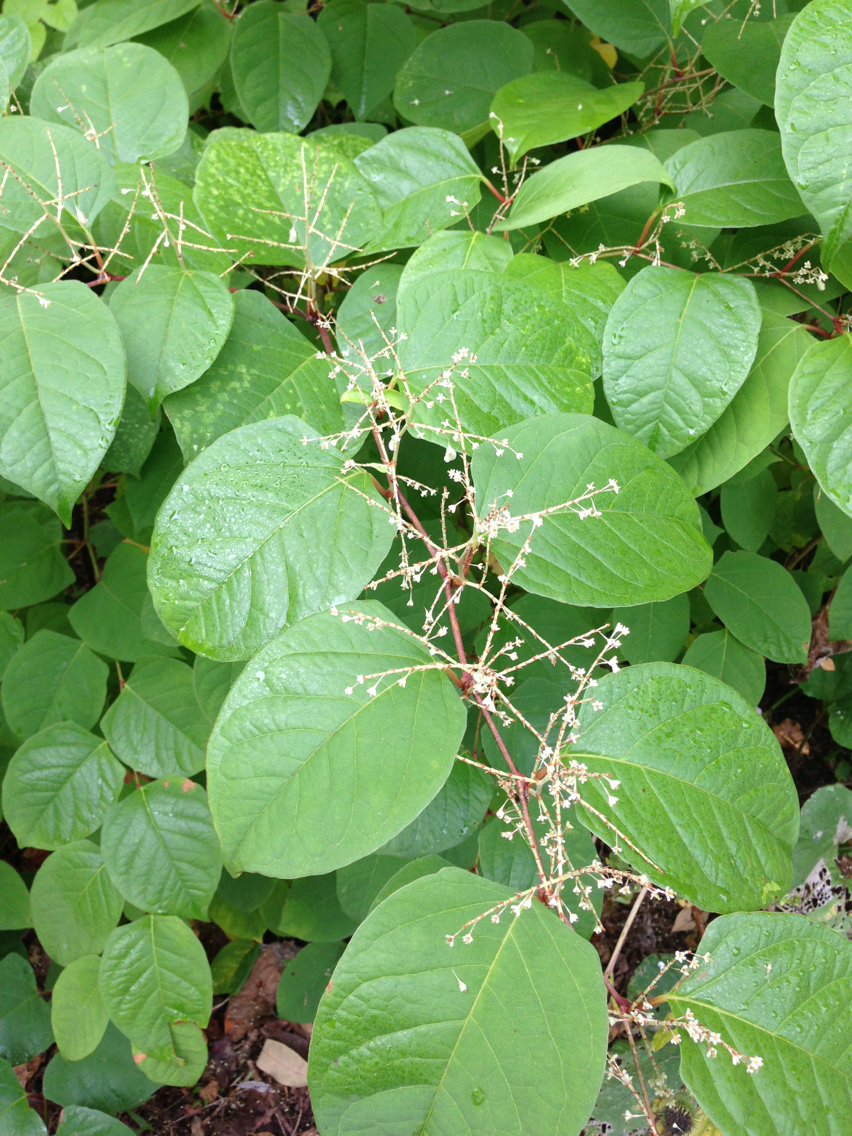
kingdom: Plantae
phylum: Tracheophyta
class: Magnoliopsida
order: Caryophyllales
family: Polygonaceae
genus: Reynoutria
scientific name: Reynoutria japonica
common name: Japanese knotweed
